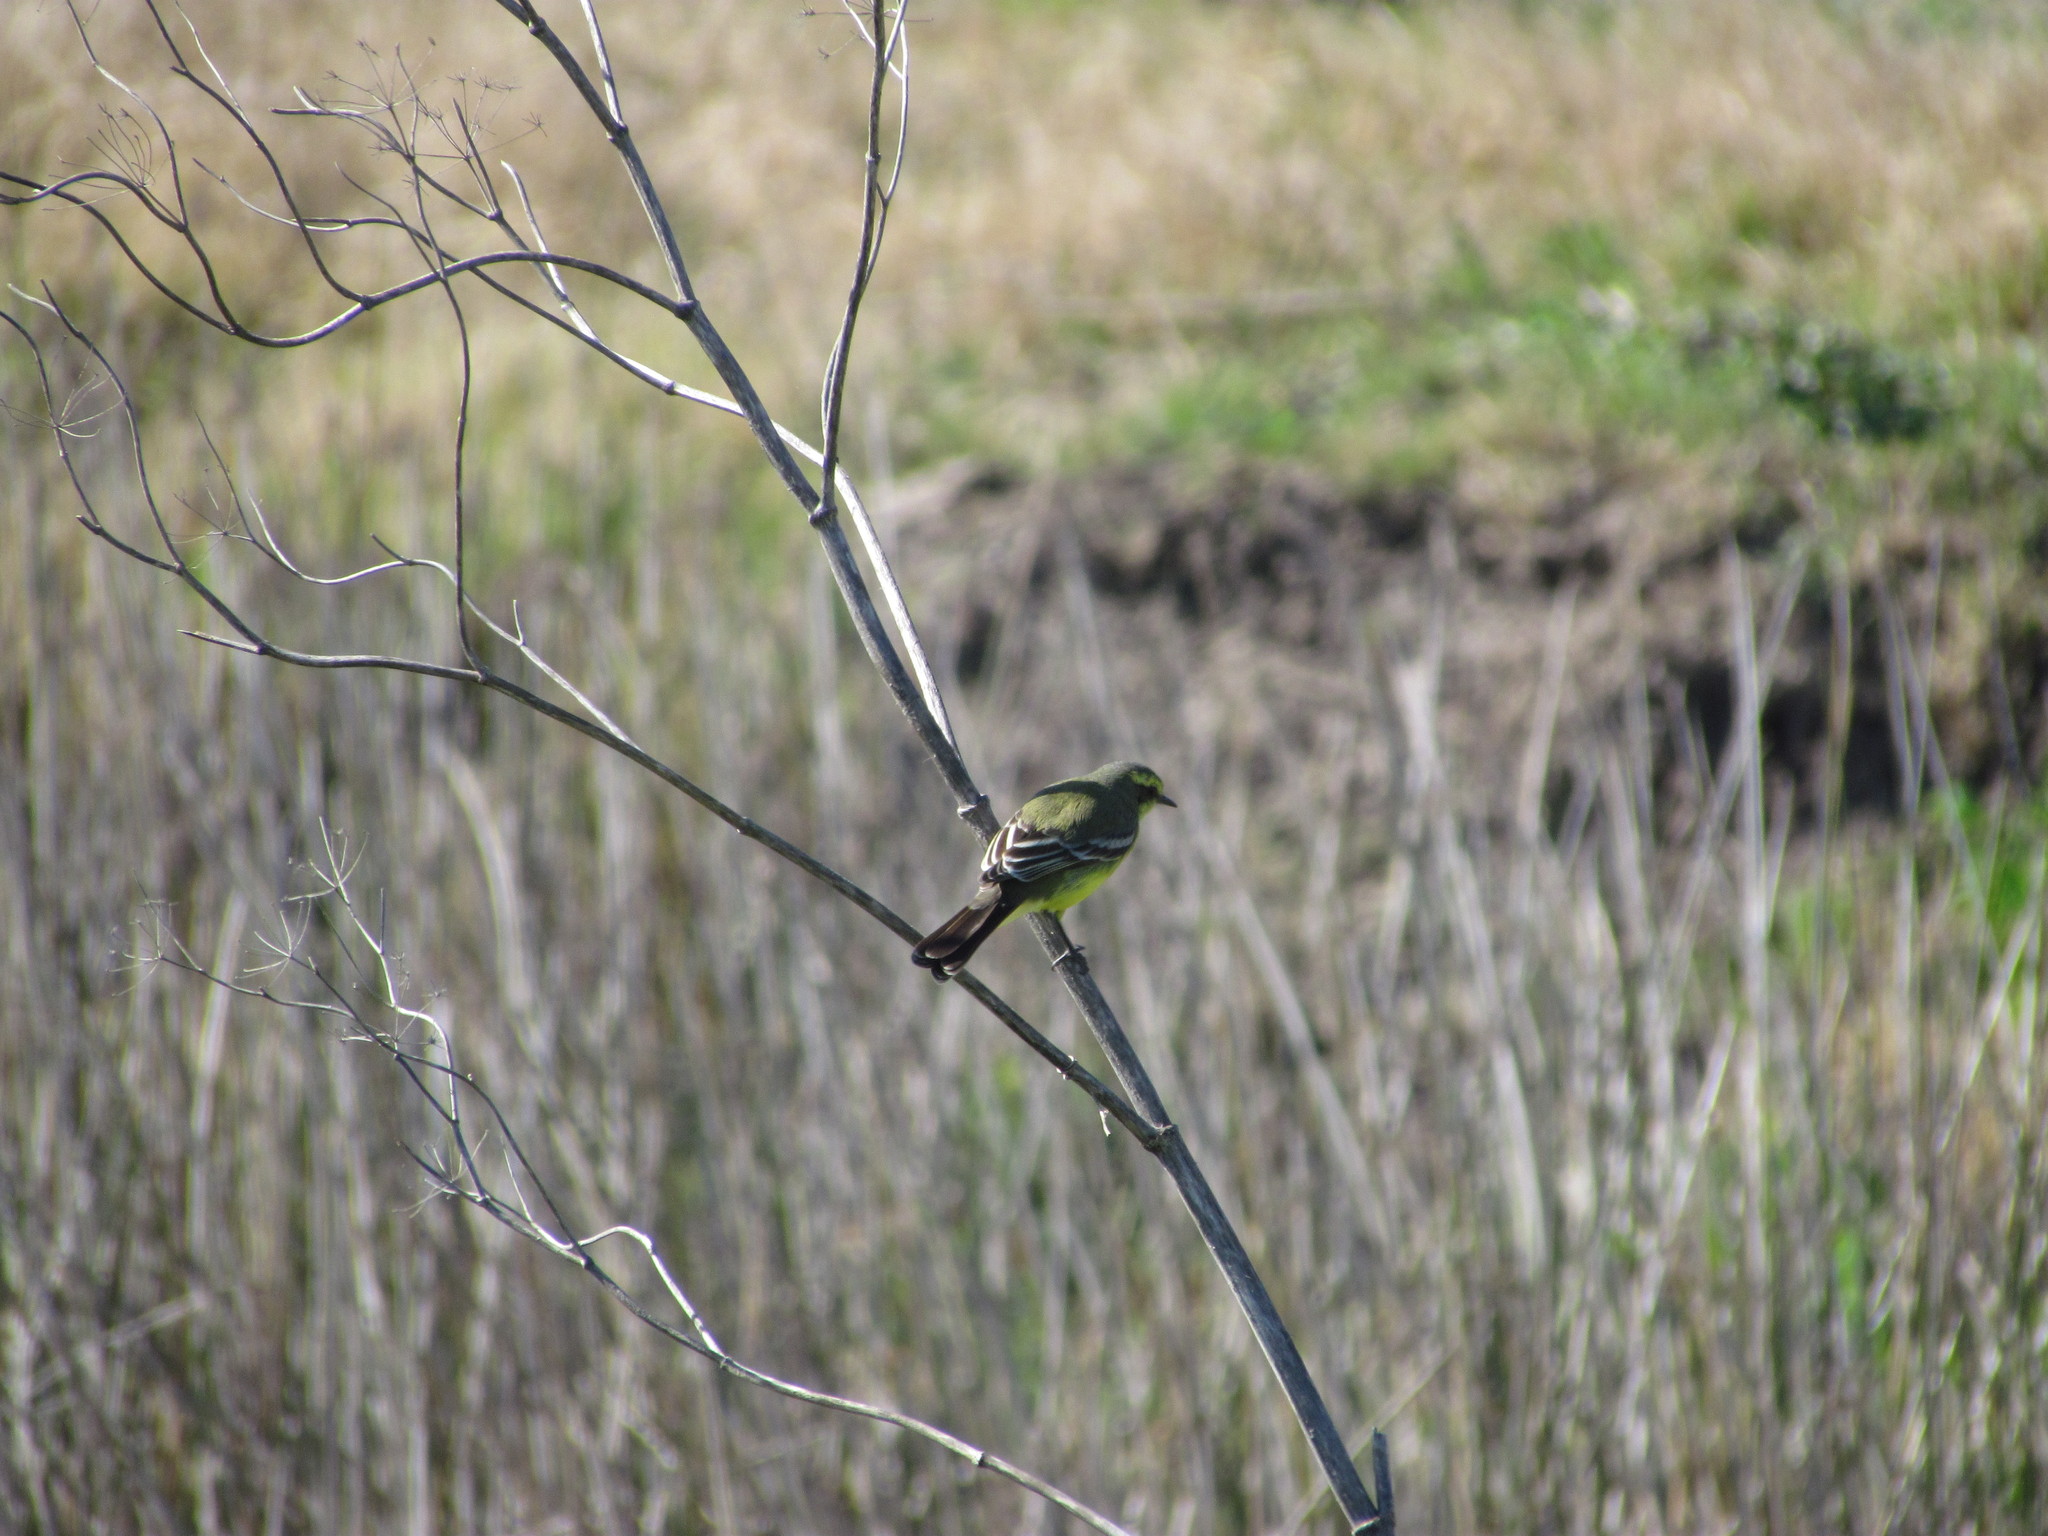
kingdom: Animalia
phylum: Chordata
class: Aves
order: Passeriformes
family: Tyrannidae
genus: Satrapa
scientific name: Satrapa icterophrys
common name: Yellow-browed tyrant
